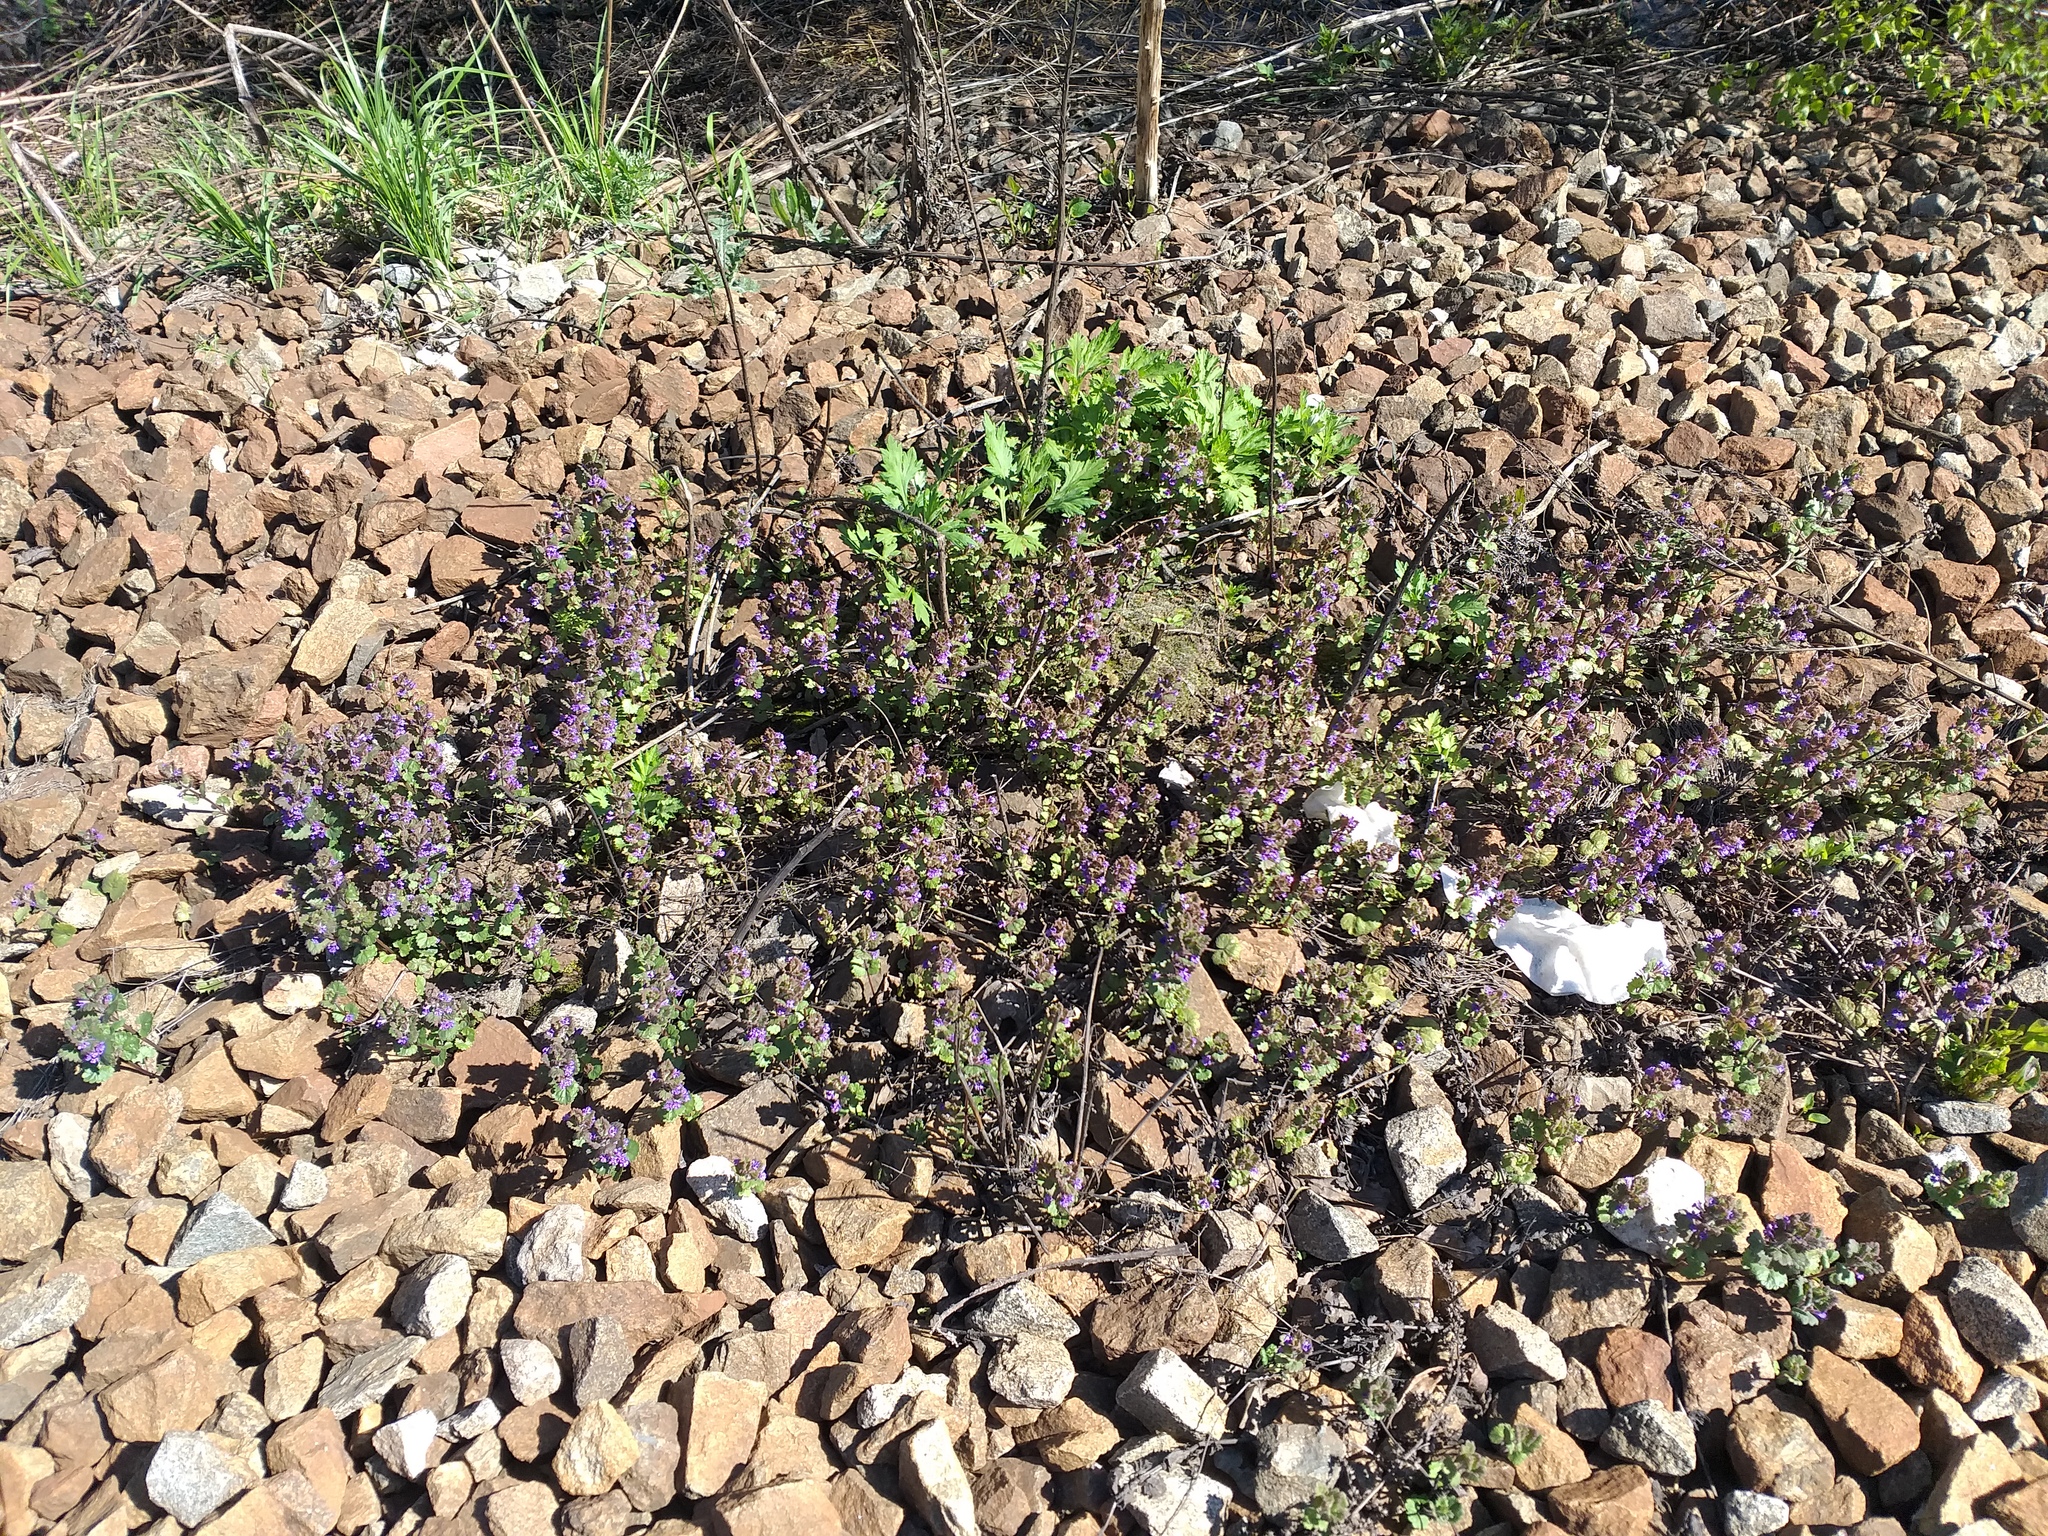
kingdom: Plantae
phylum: Tracheophyta
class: Magnoliopsida
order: Lamiales
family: Lamiaceae
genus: Glechoma
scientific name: Glechoma hederacea
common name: Ground ivy
